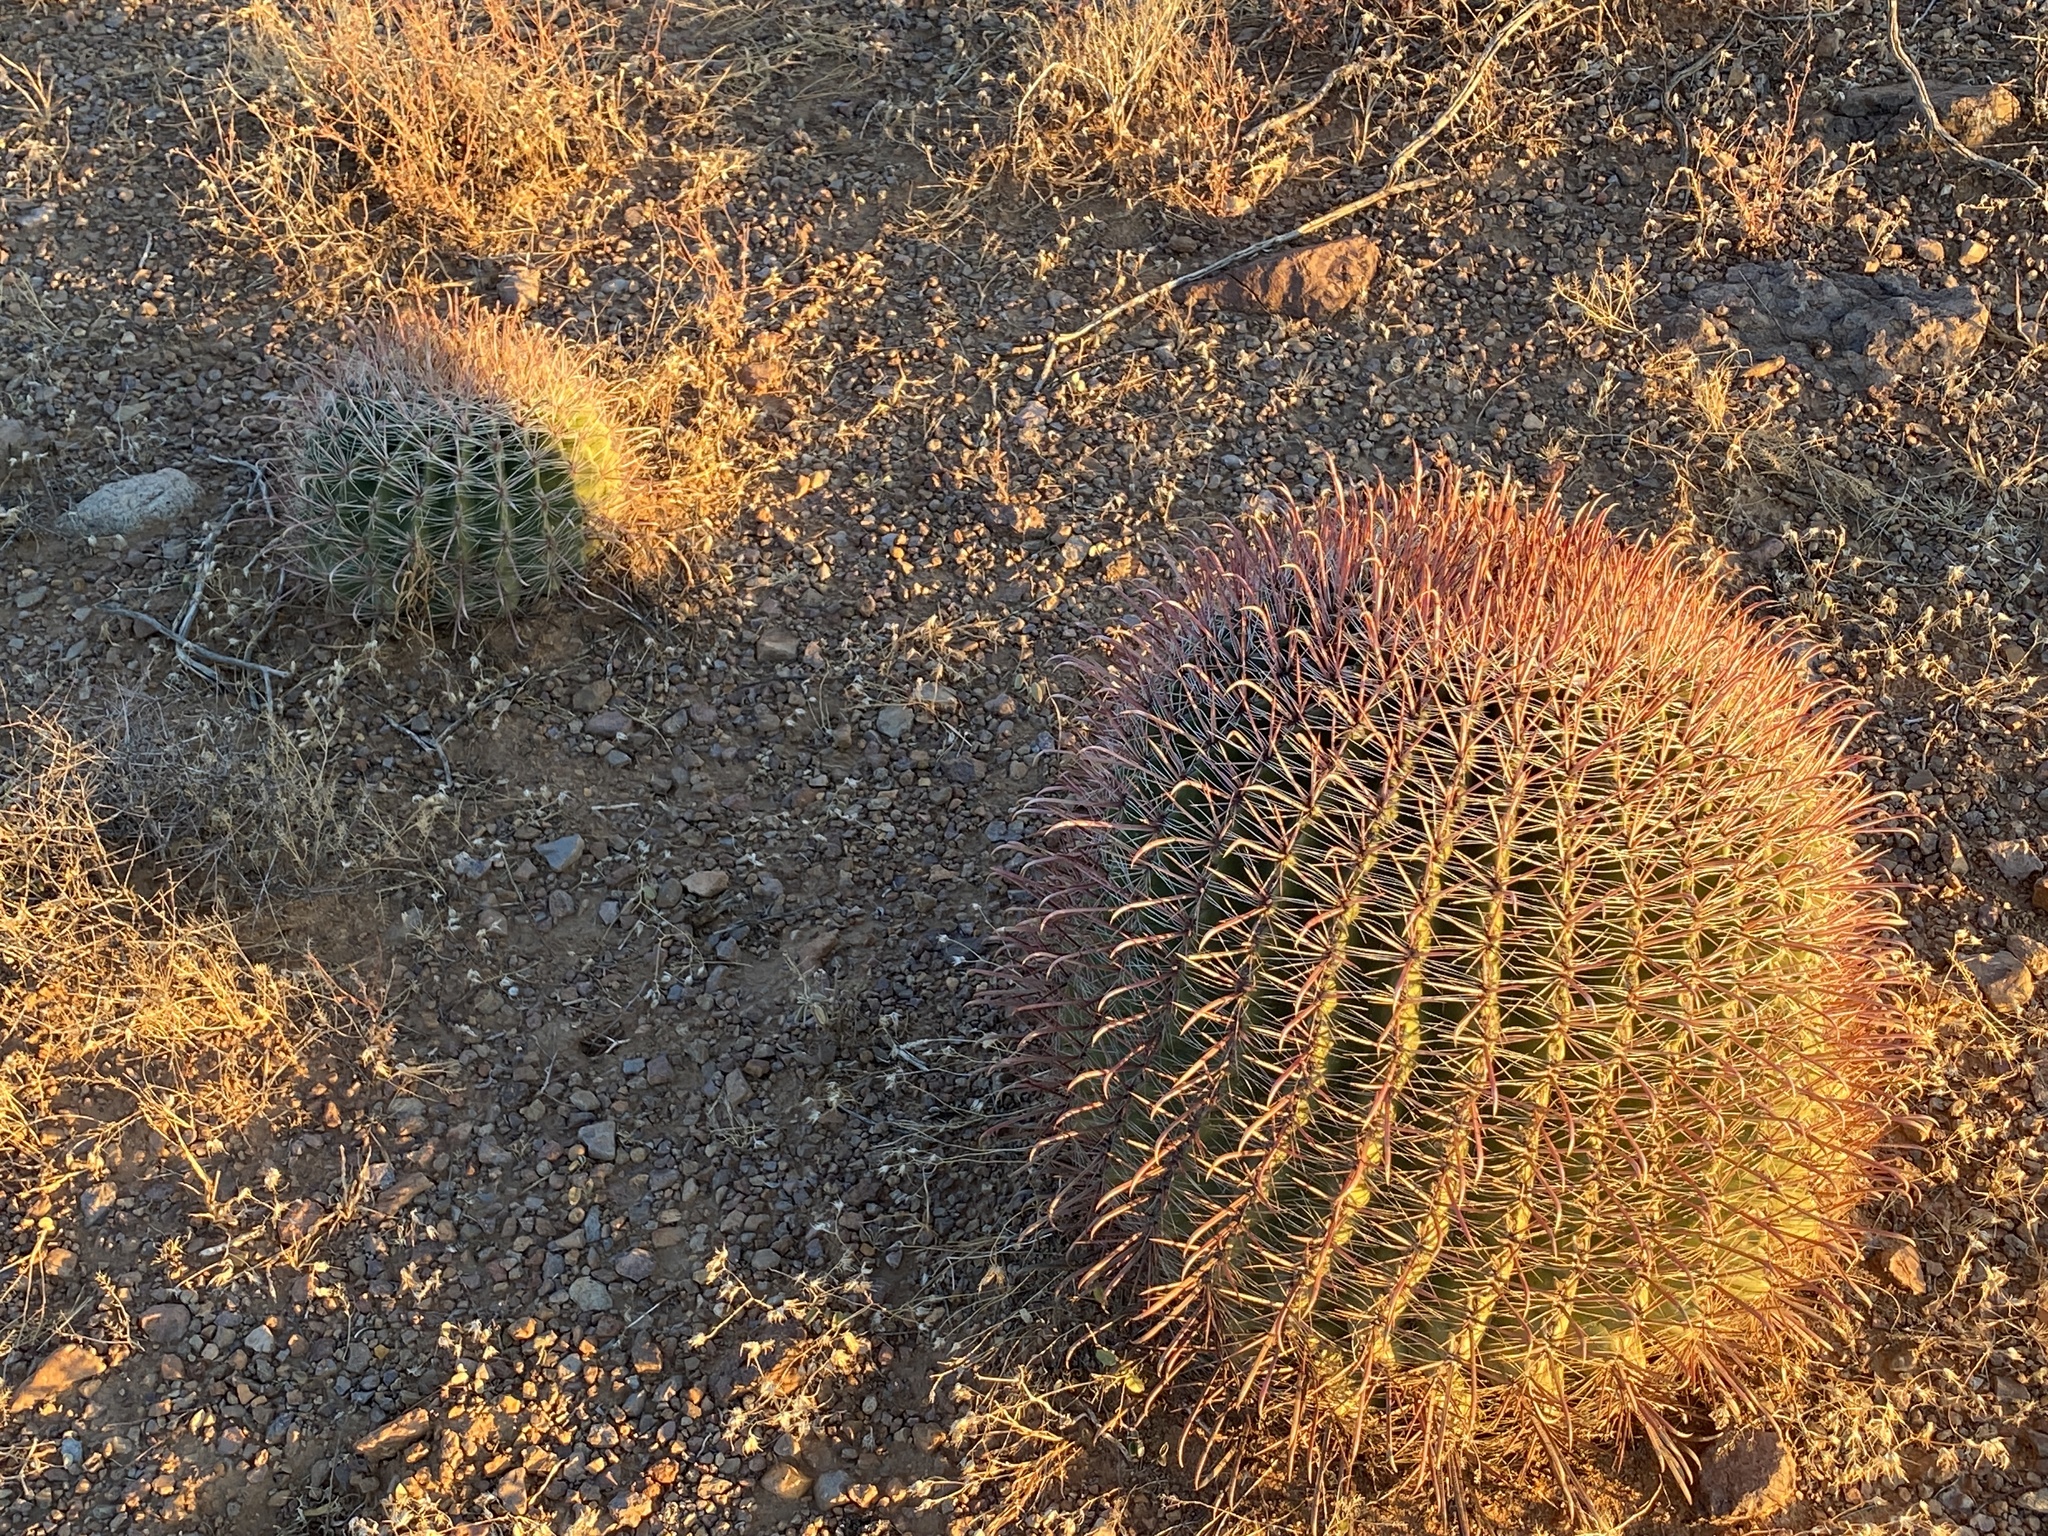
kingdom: Plantae
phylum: Tracheophyta
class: Magnoliopsida
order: Caryophyllales
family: Cactaceae
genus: Ferocactus
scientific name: Ferocactus wislizeni
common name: Candy barrel cactus
